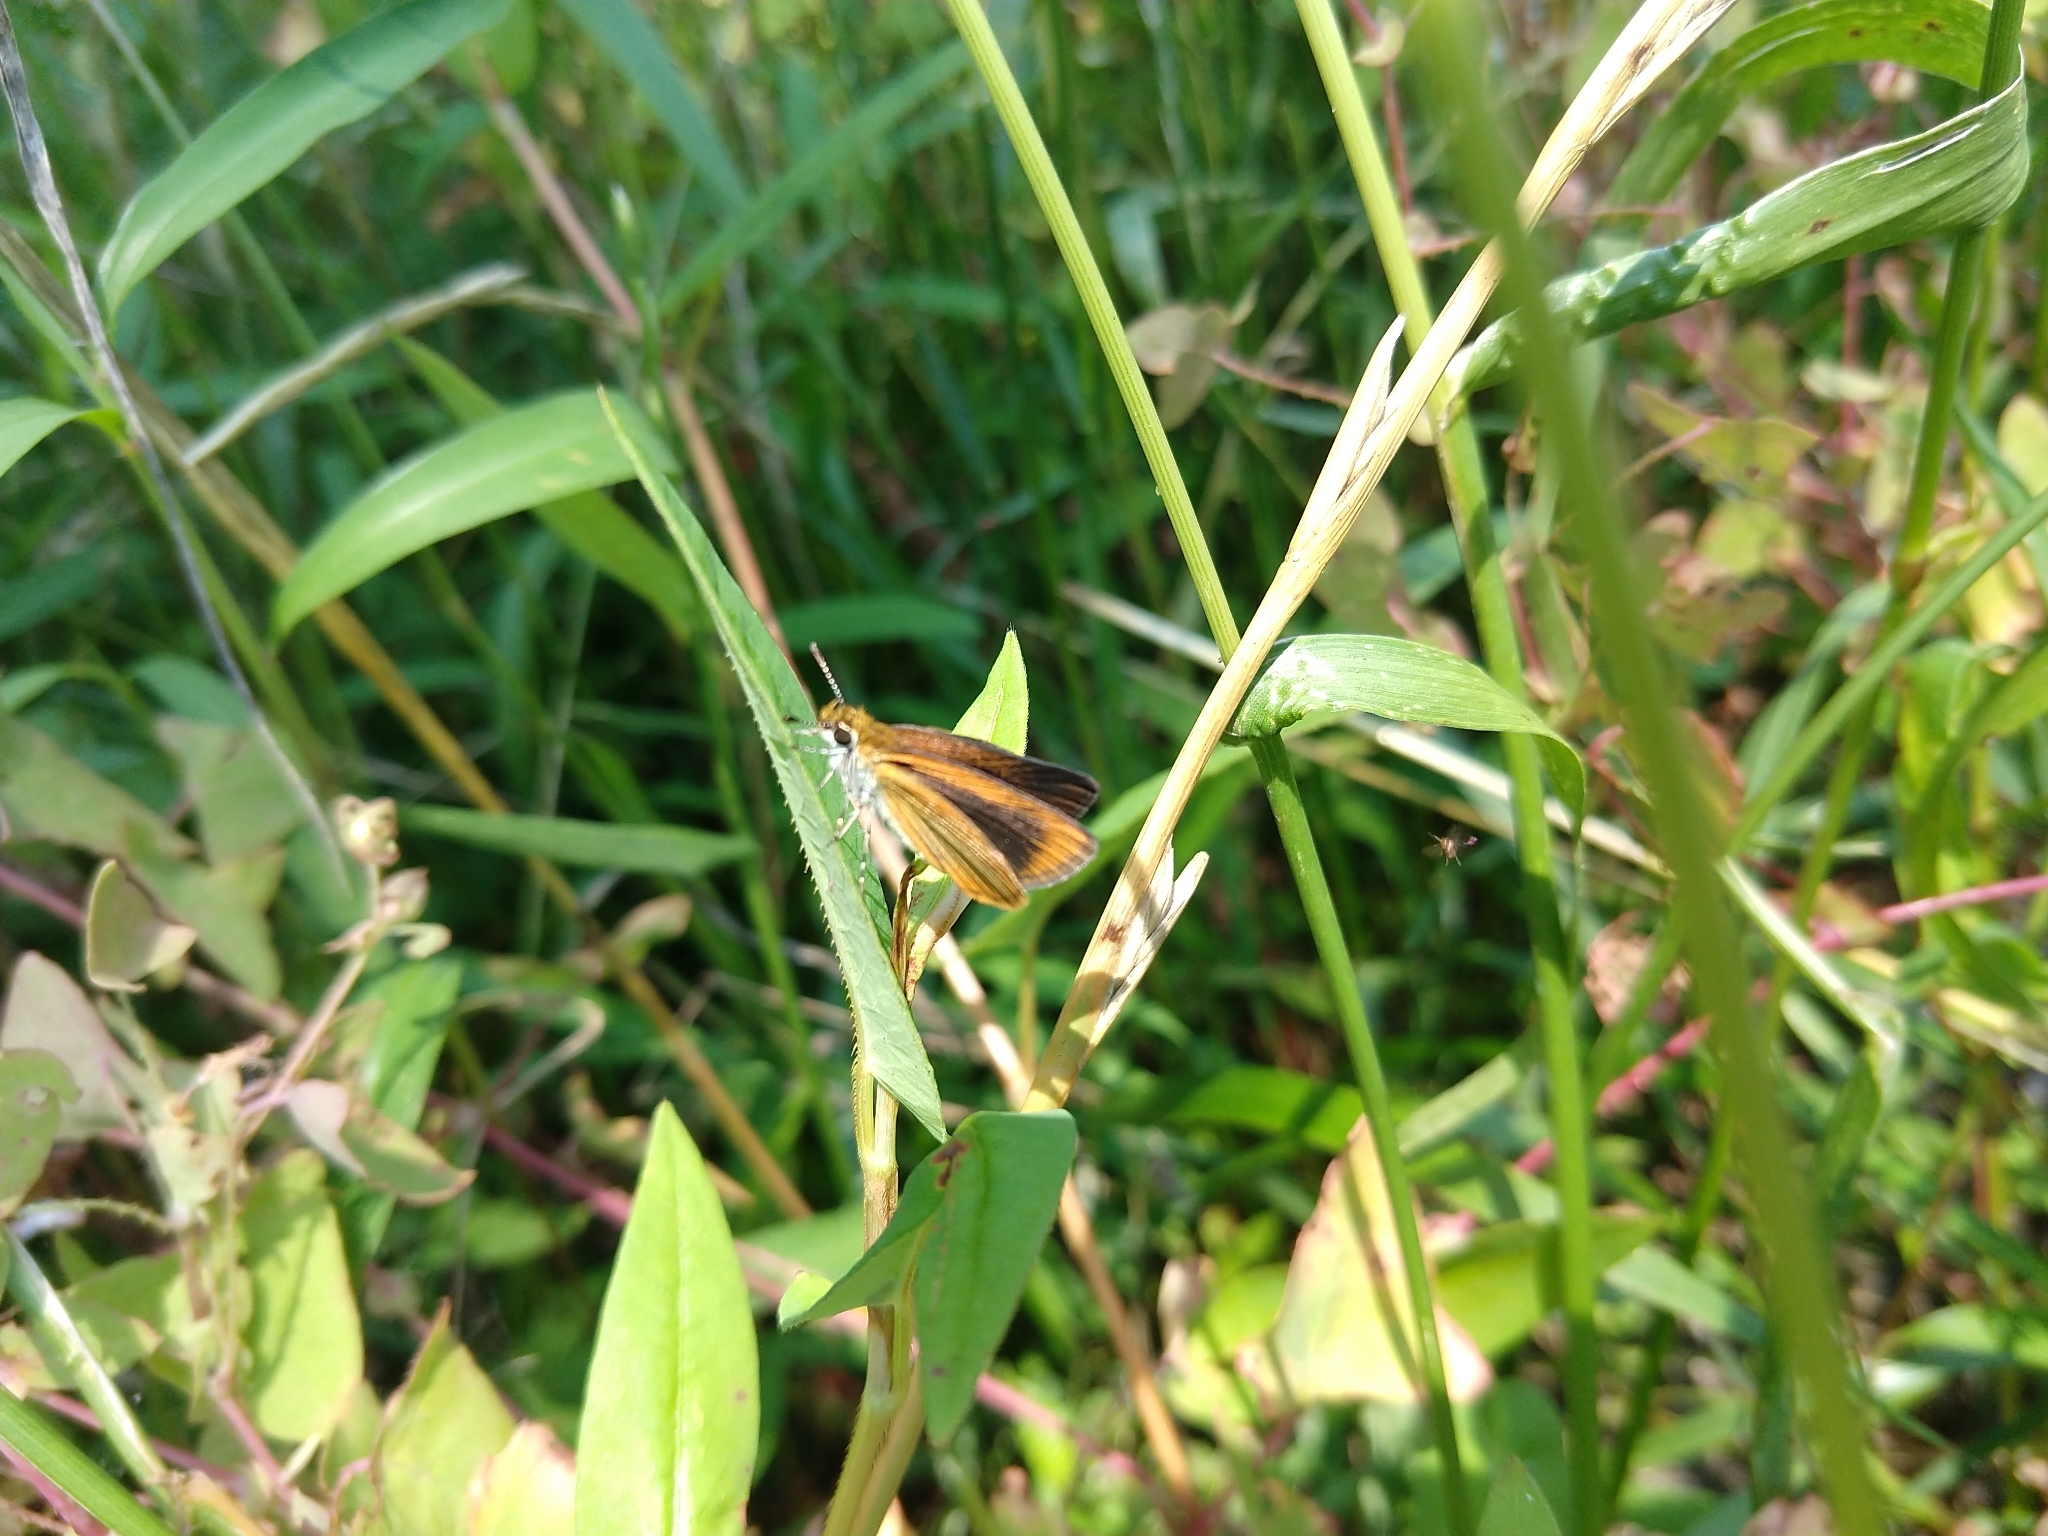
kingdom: Animalia
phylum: Arthropoda
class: Insecta
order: Lepidoptera
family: Hesperiidae
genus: Ancyloxypha
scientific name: Ancyloxypha numitor
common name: Least skipper
